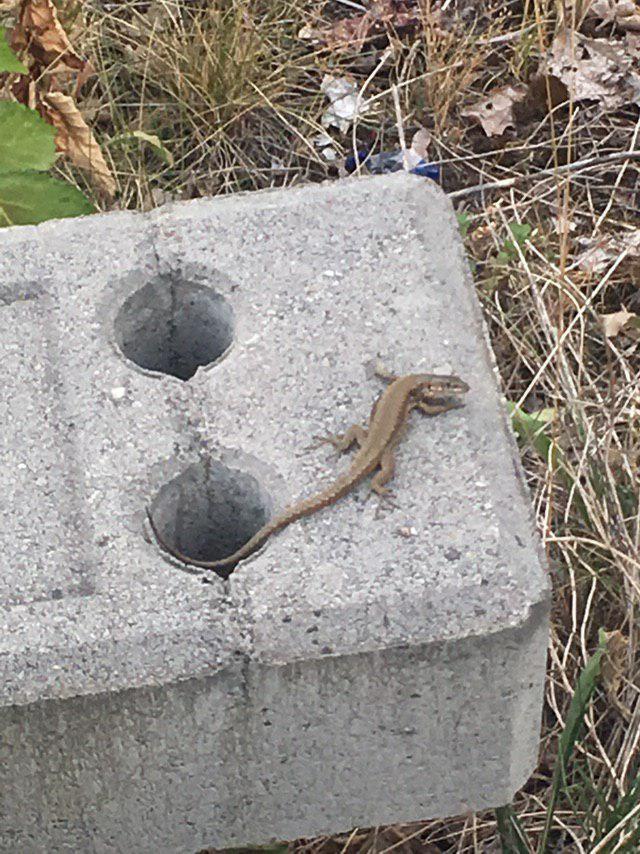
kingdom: Animalia
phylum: Chordata
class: Squamata
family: Lacertidae
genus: Podarcis
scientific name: Podarcis muralis
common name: Common wall lizard
